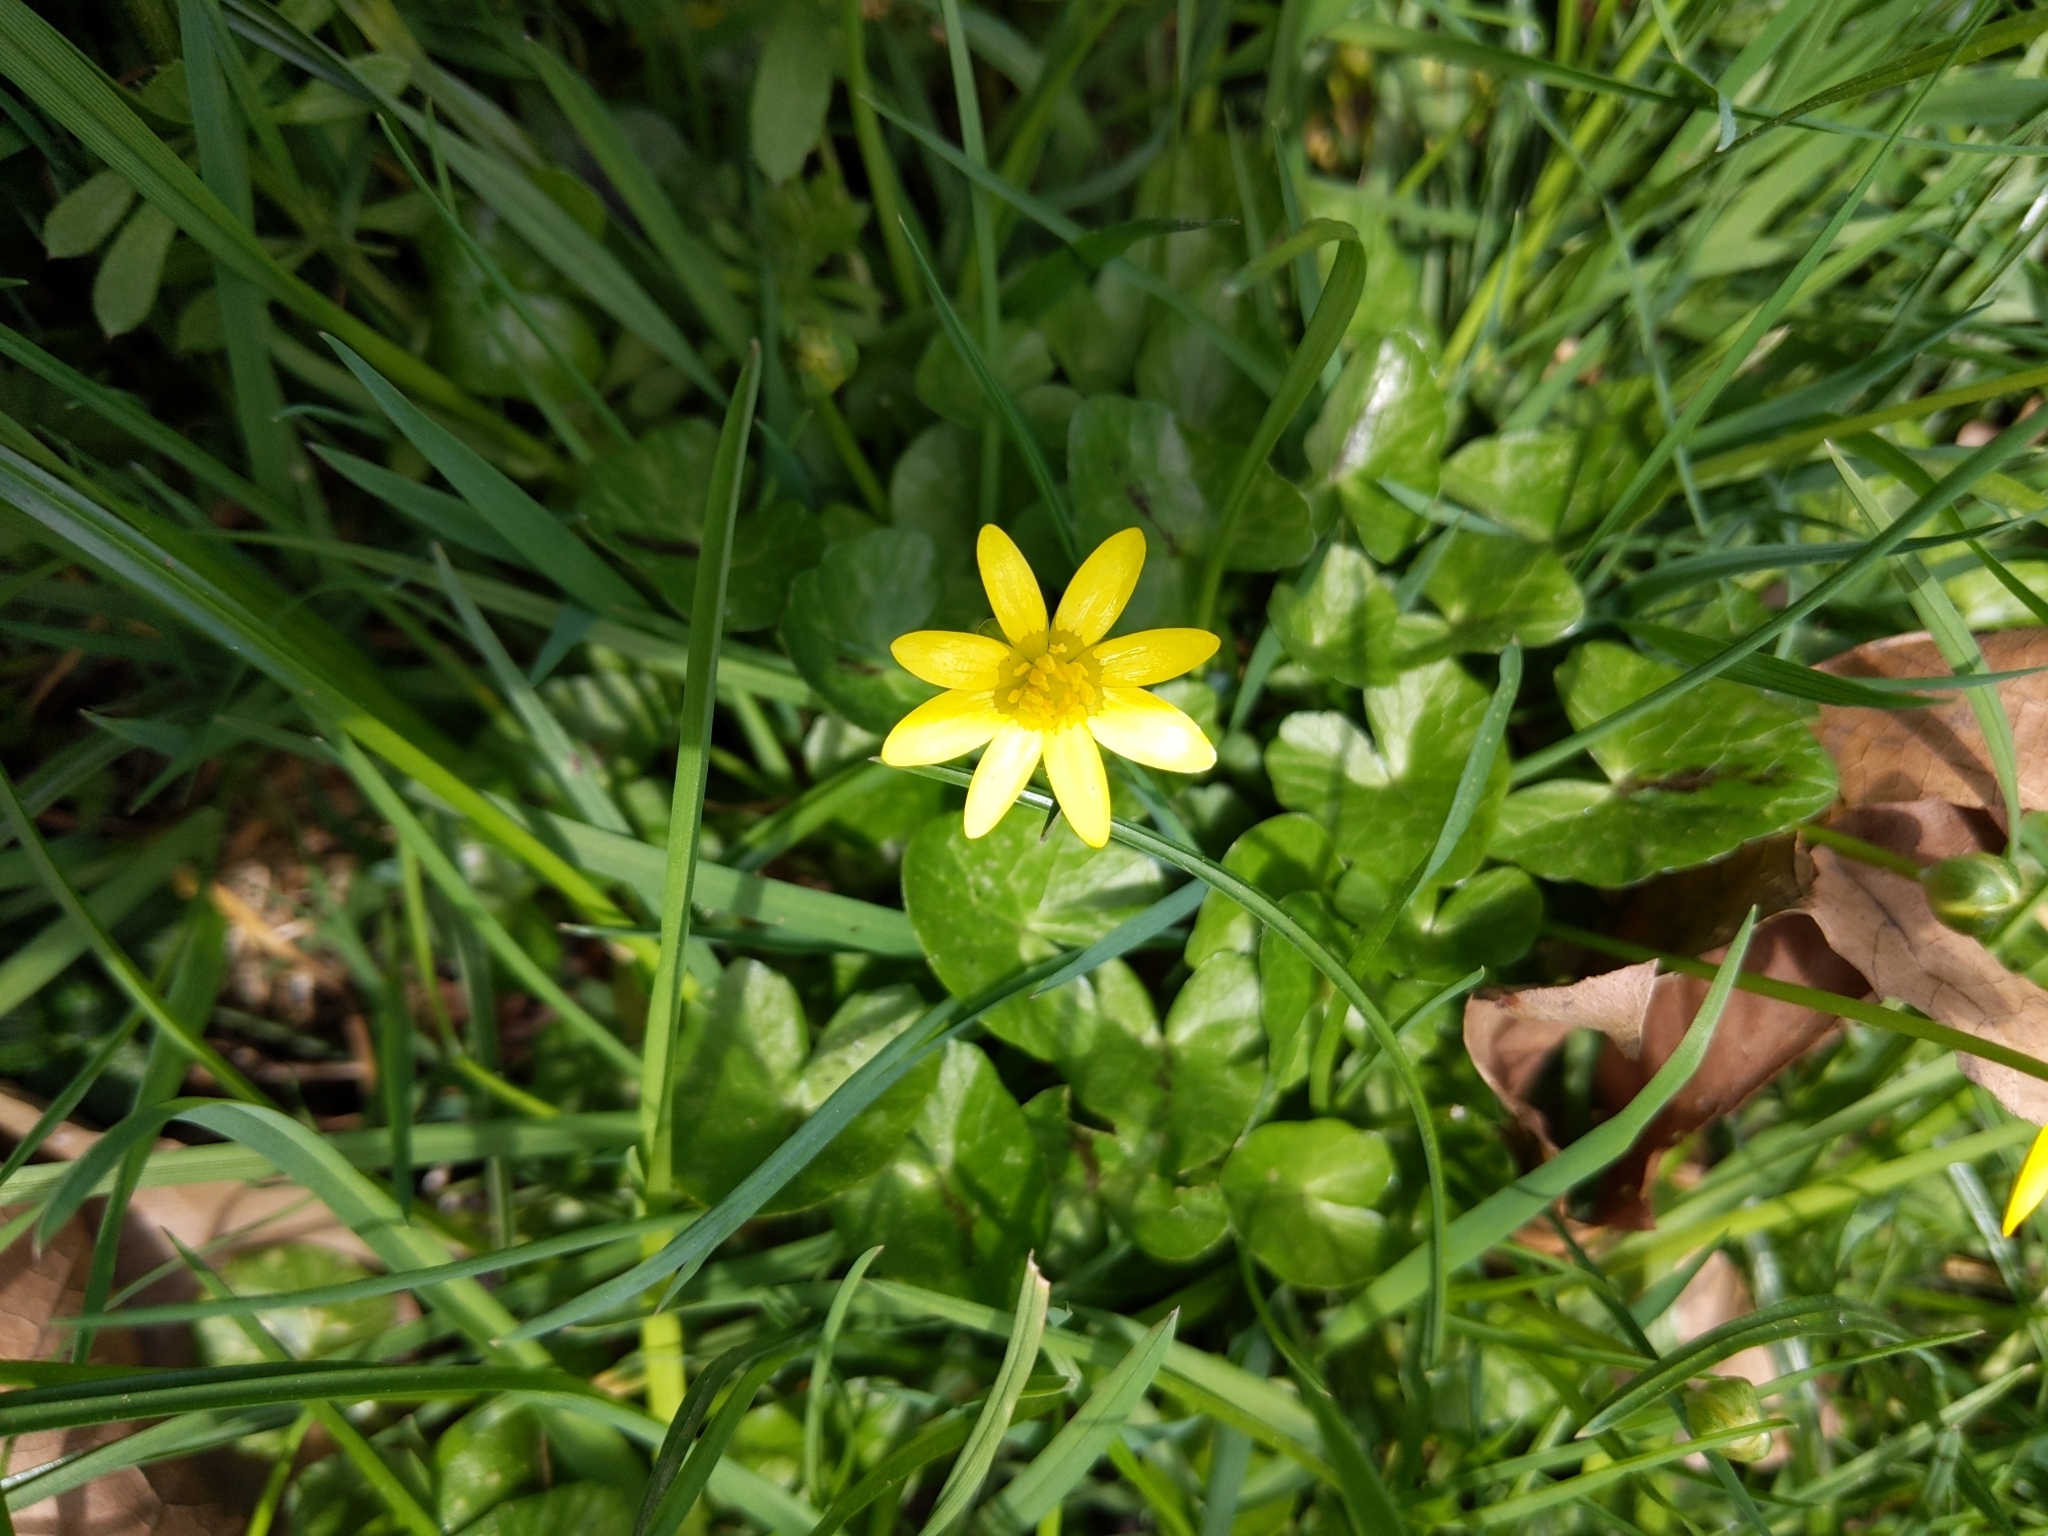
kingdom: Plantae
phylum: Tracheophyta
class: Magnoliopsida
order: Ranunculales
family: Ranunculaceae
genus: Ficaria
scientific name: Ficaria verna
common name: Lesser celandine
